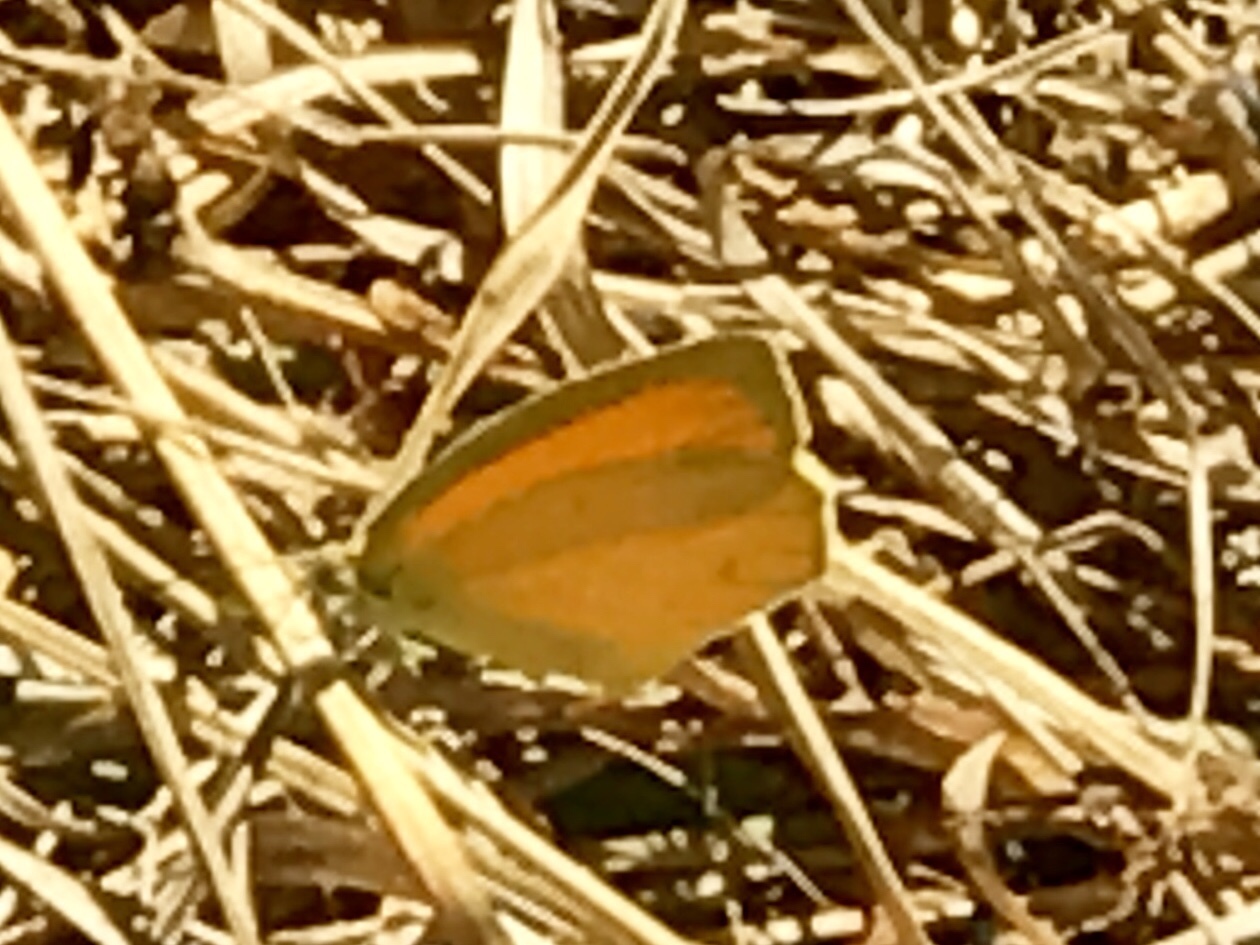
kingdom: Animalia
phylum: Arthropoda
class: Insecta
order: Lepidoptera
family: Pieridae
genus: Pyrisitia
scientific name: Pyrisitia proterpia
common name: Tailed orange
